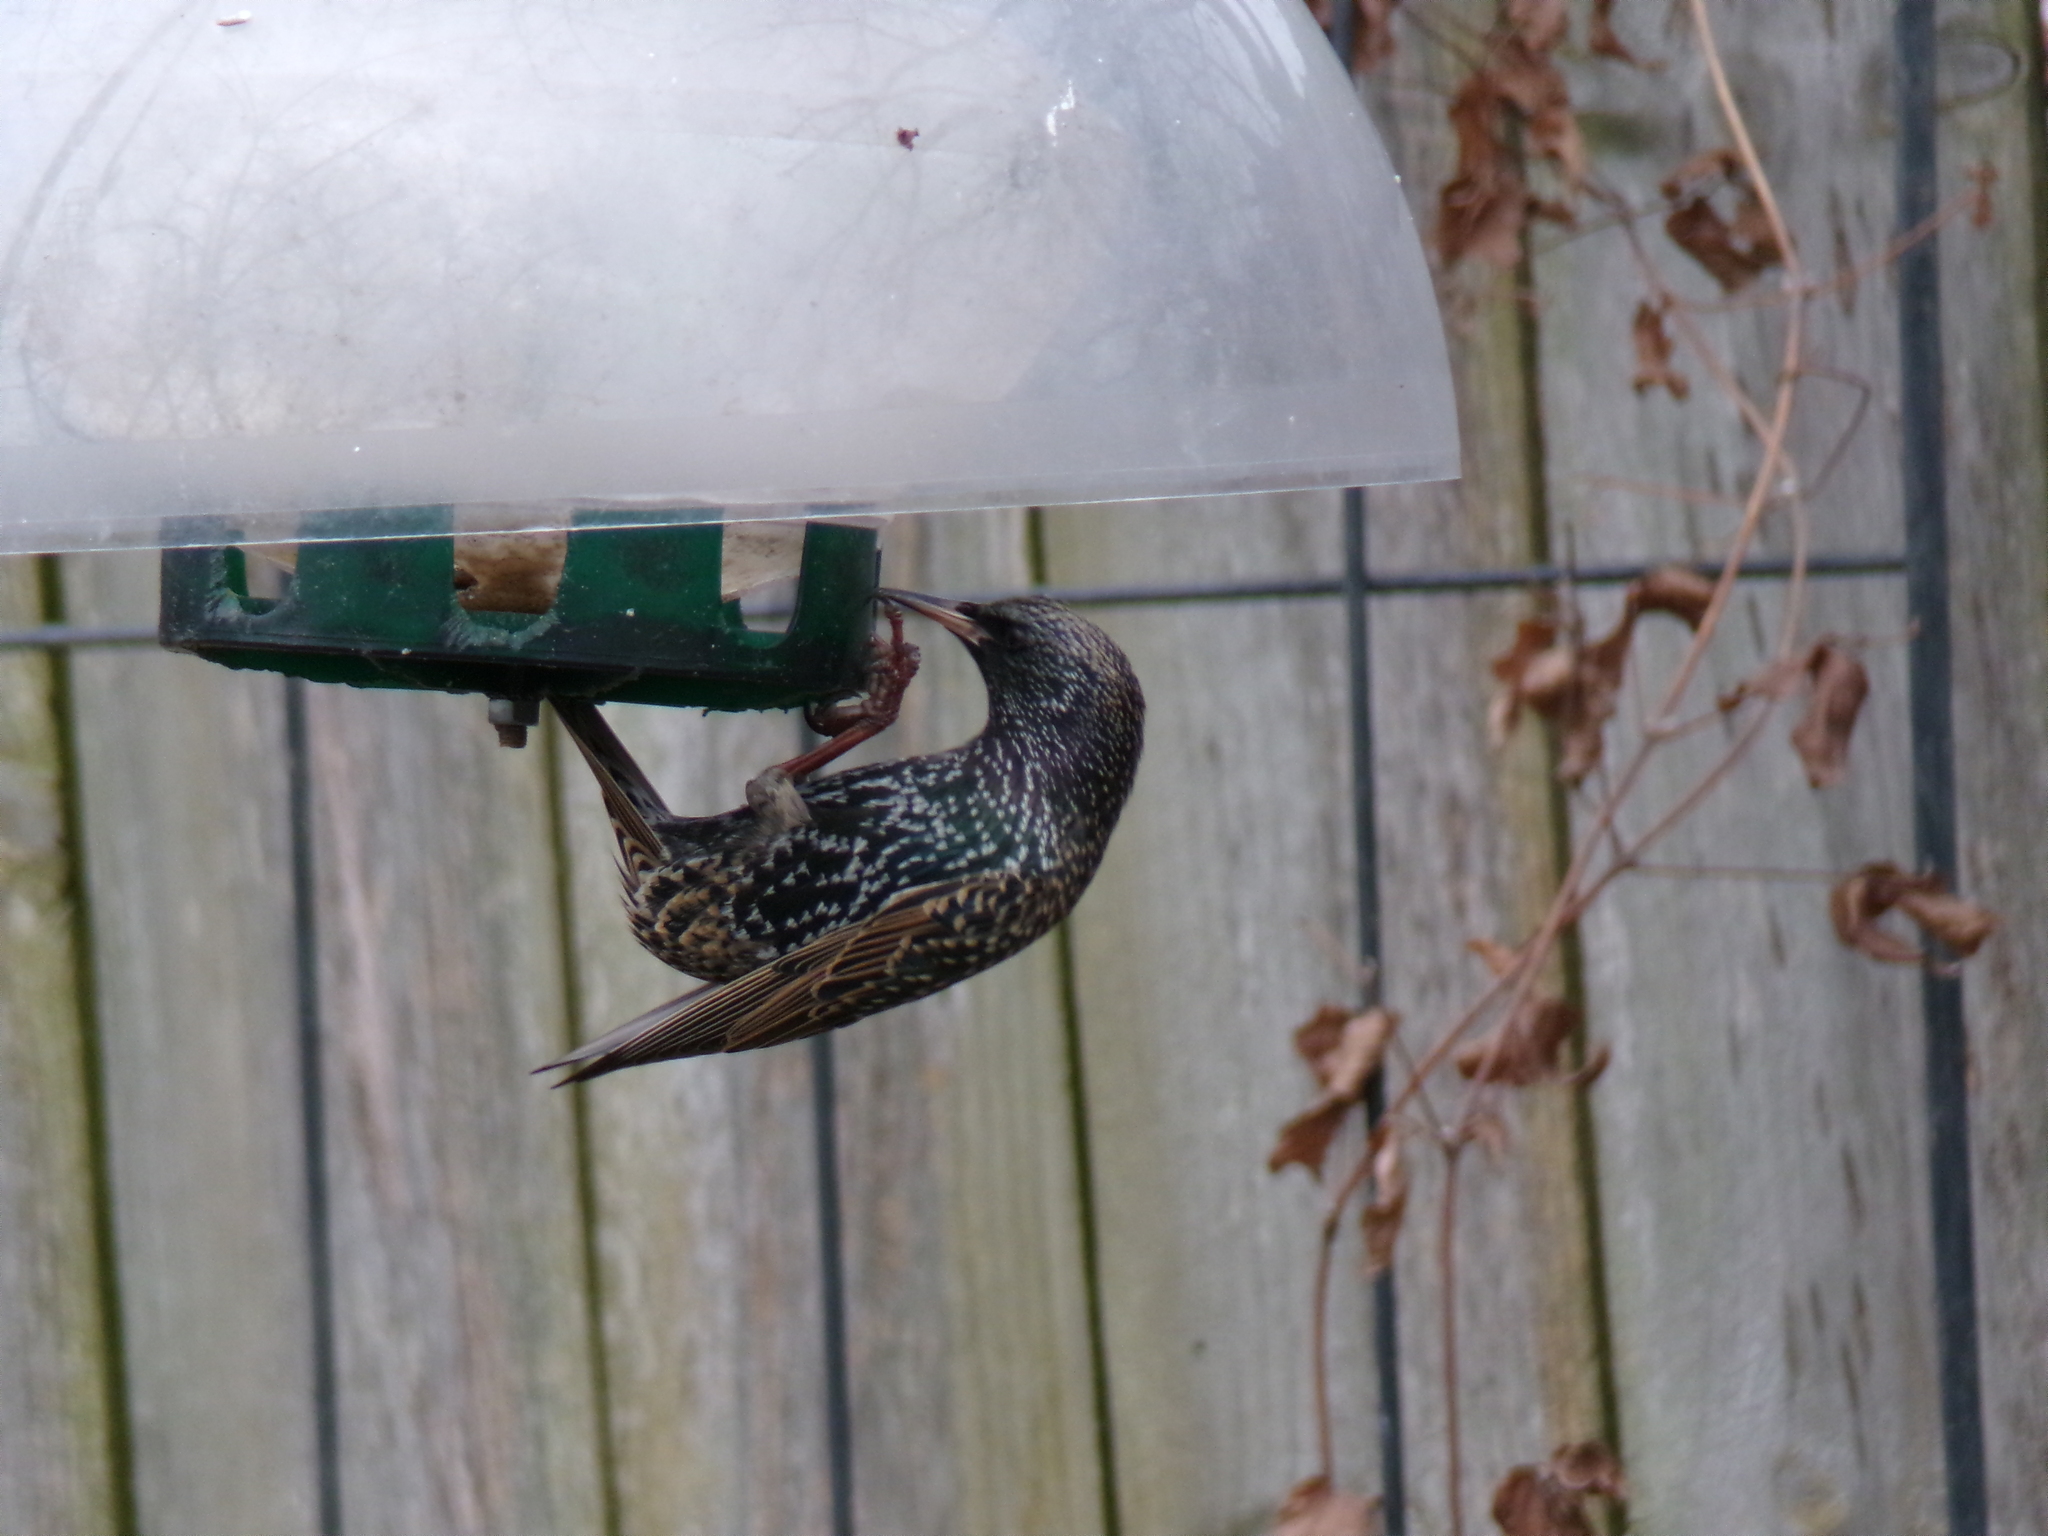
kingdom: Animalia
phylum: Chordata
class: Aves
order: Passeriformes
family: Sturnidae
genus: Sturnus
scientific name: Sturnus vulgaris
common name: Common starling
